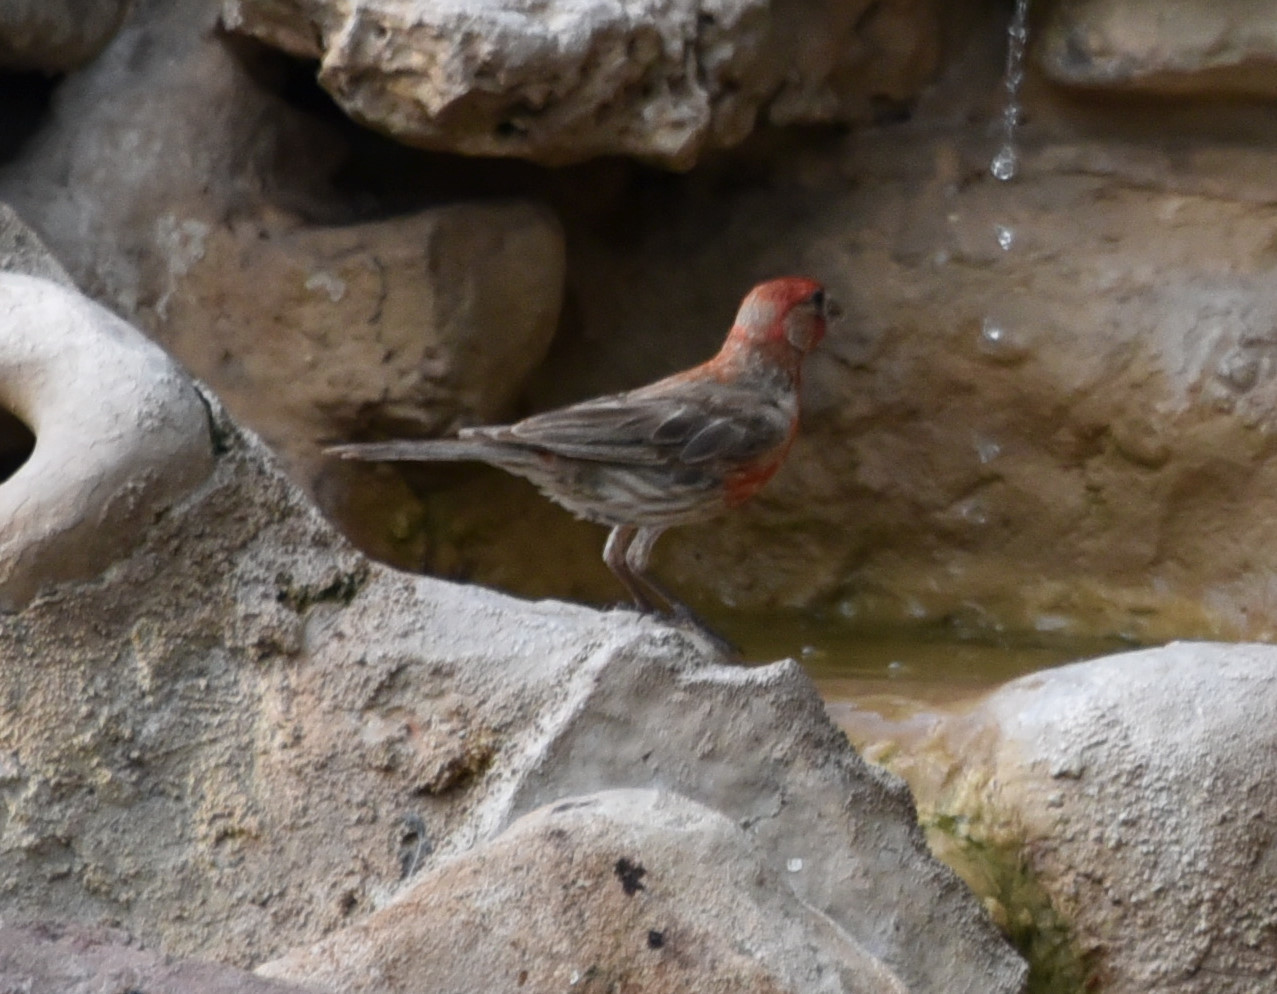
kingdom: Animalia
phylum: Chordata
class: Aves
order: Passeriformes
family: Fringillidae
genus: Haemorhous
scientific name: Haemorhous mexicanus
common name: House finch
